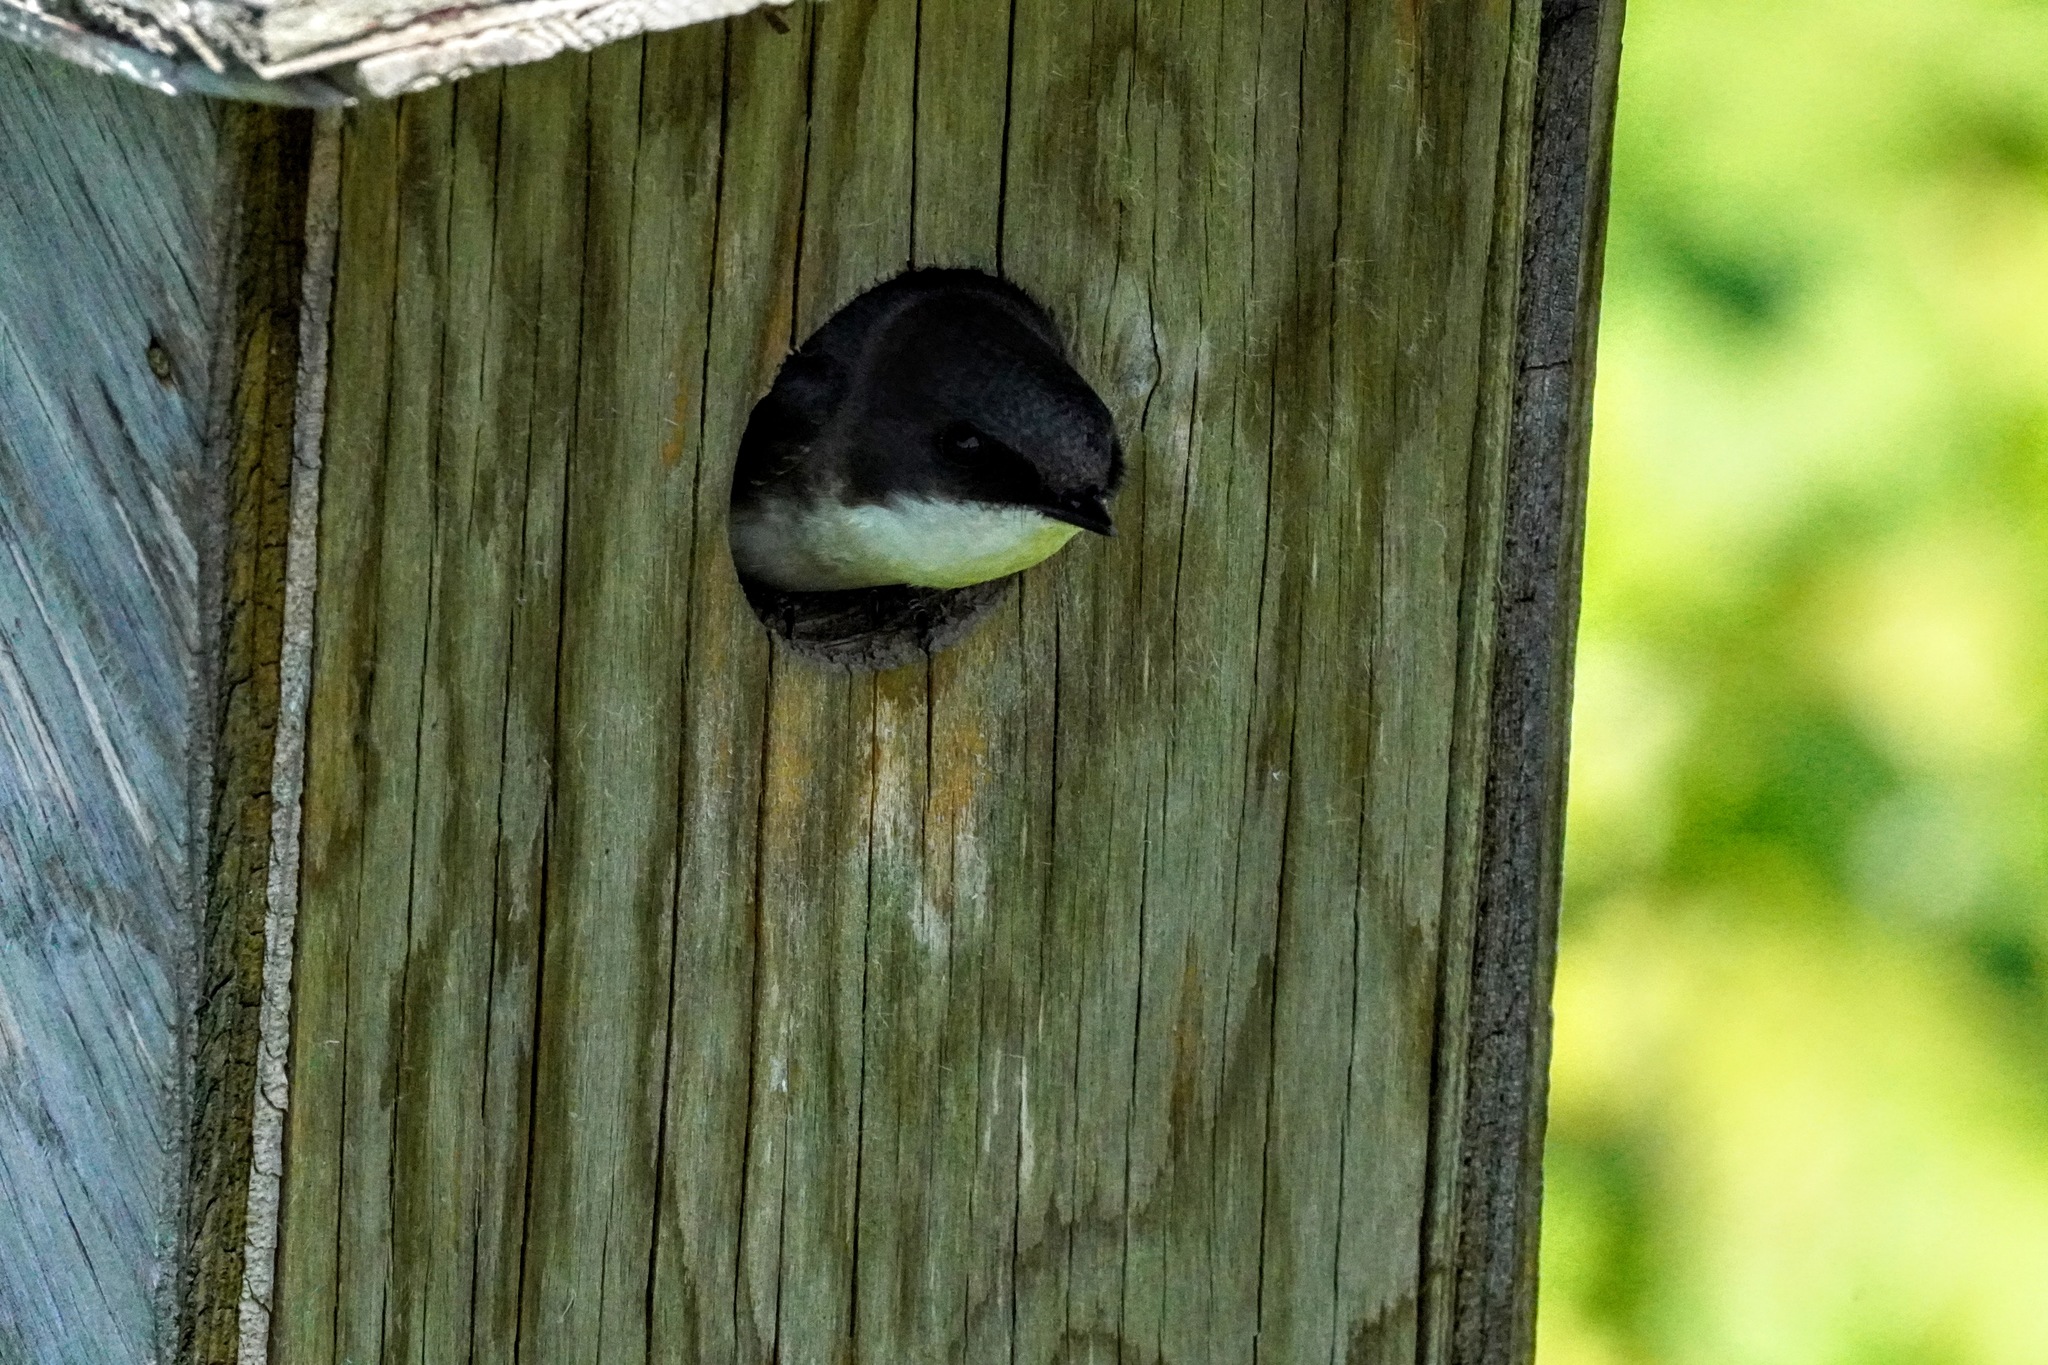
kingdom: Animalia
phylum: Chordata
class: Aves
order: Passeriformes
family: Hirundinidae
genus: Tachycineta
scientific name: Tachycineta bicolor
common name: Tree swallow
